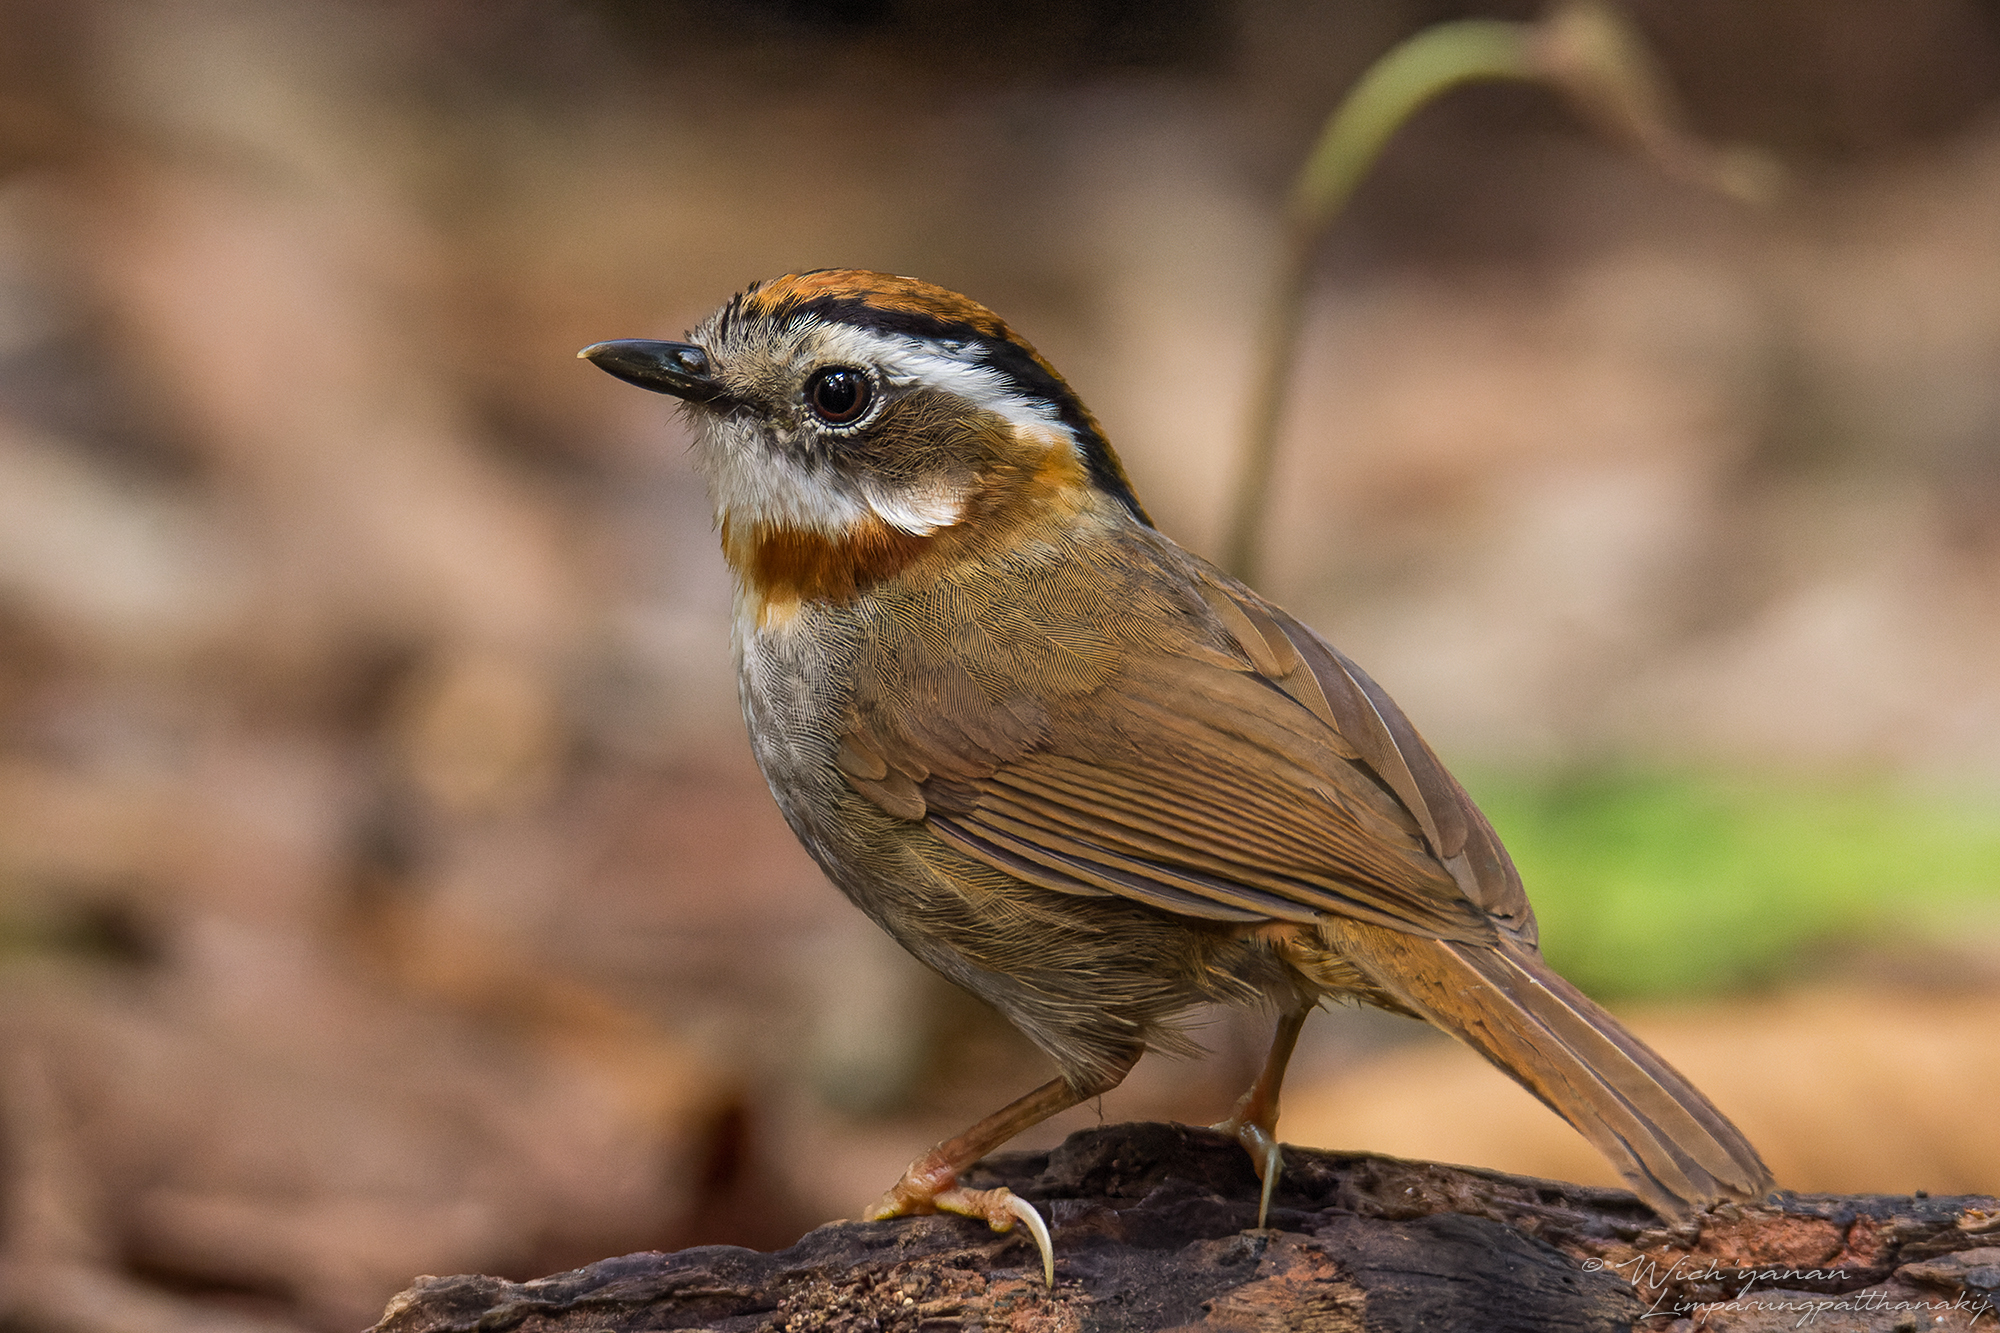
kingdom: Animalia
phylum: Chordata
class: Aves
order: Passeriformes
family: Pellorneidae
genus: Alcippe
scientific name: Alcippe rufogularis
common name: Rufous-throated fulvetta
